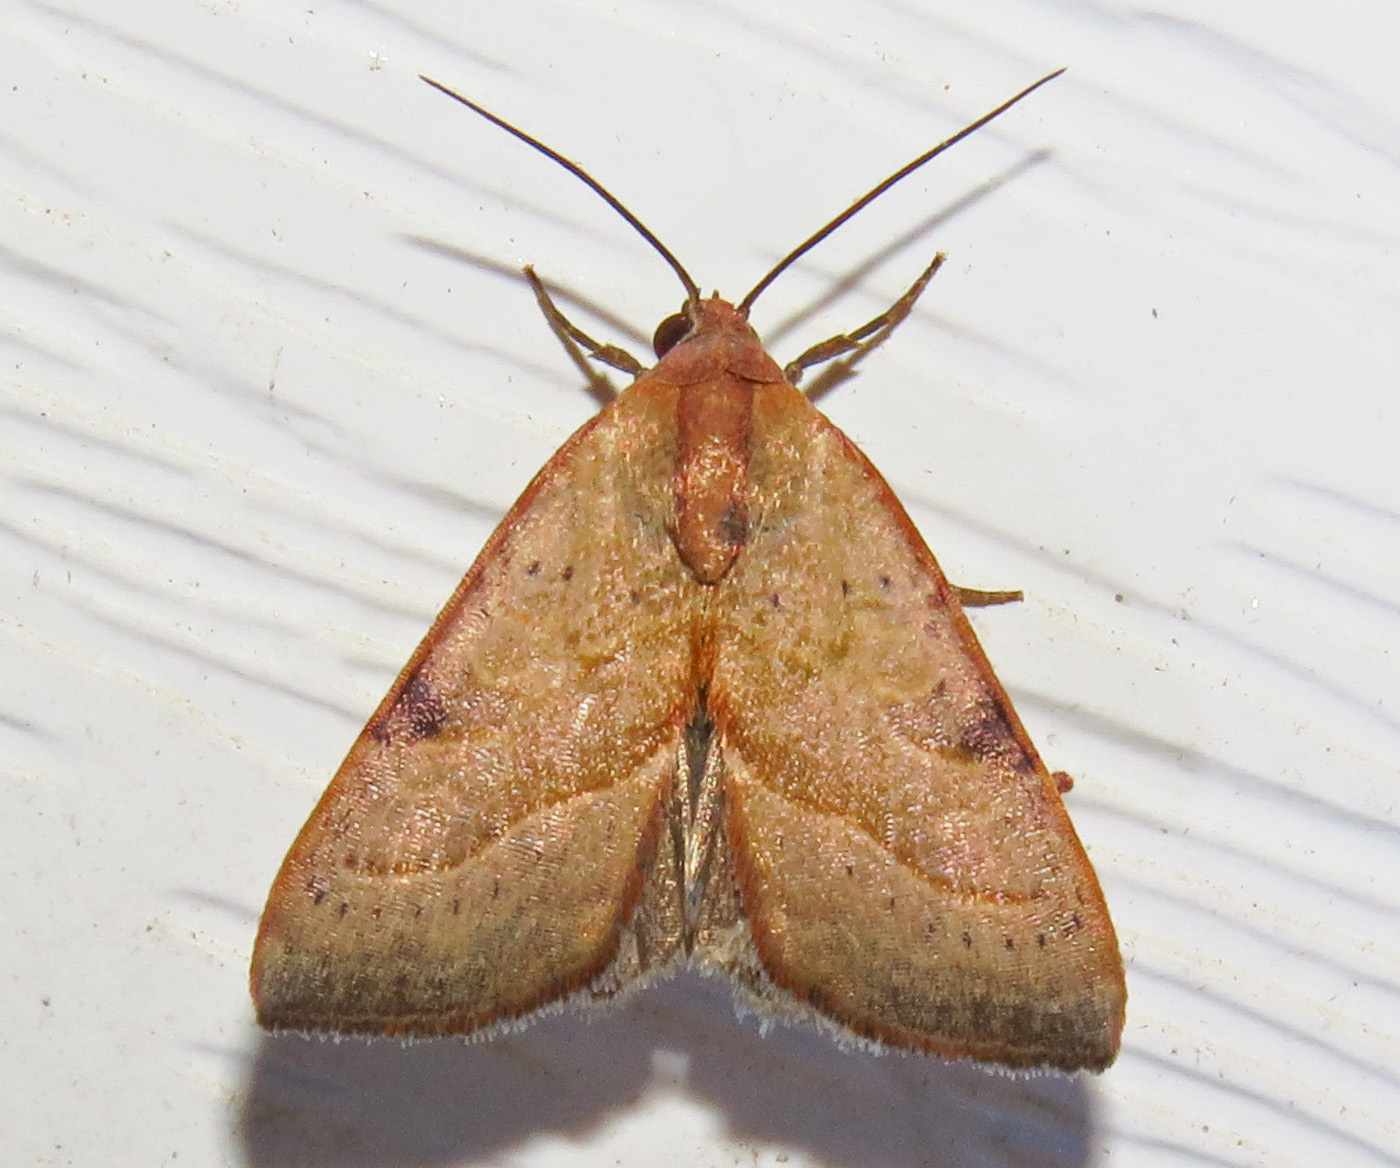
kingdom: Animalia
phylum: Arthropoda
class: Insecta
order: Lepidoptera
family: Noctuidae
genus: Galgula
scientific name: Galgula partita
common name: Wedgeling
